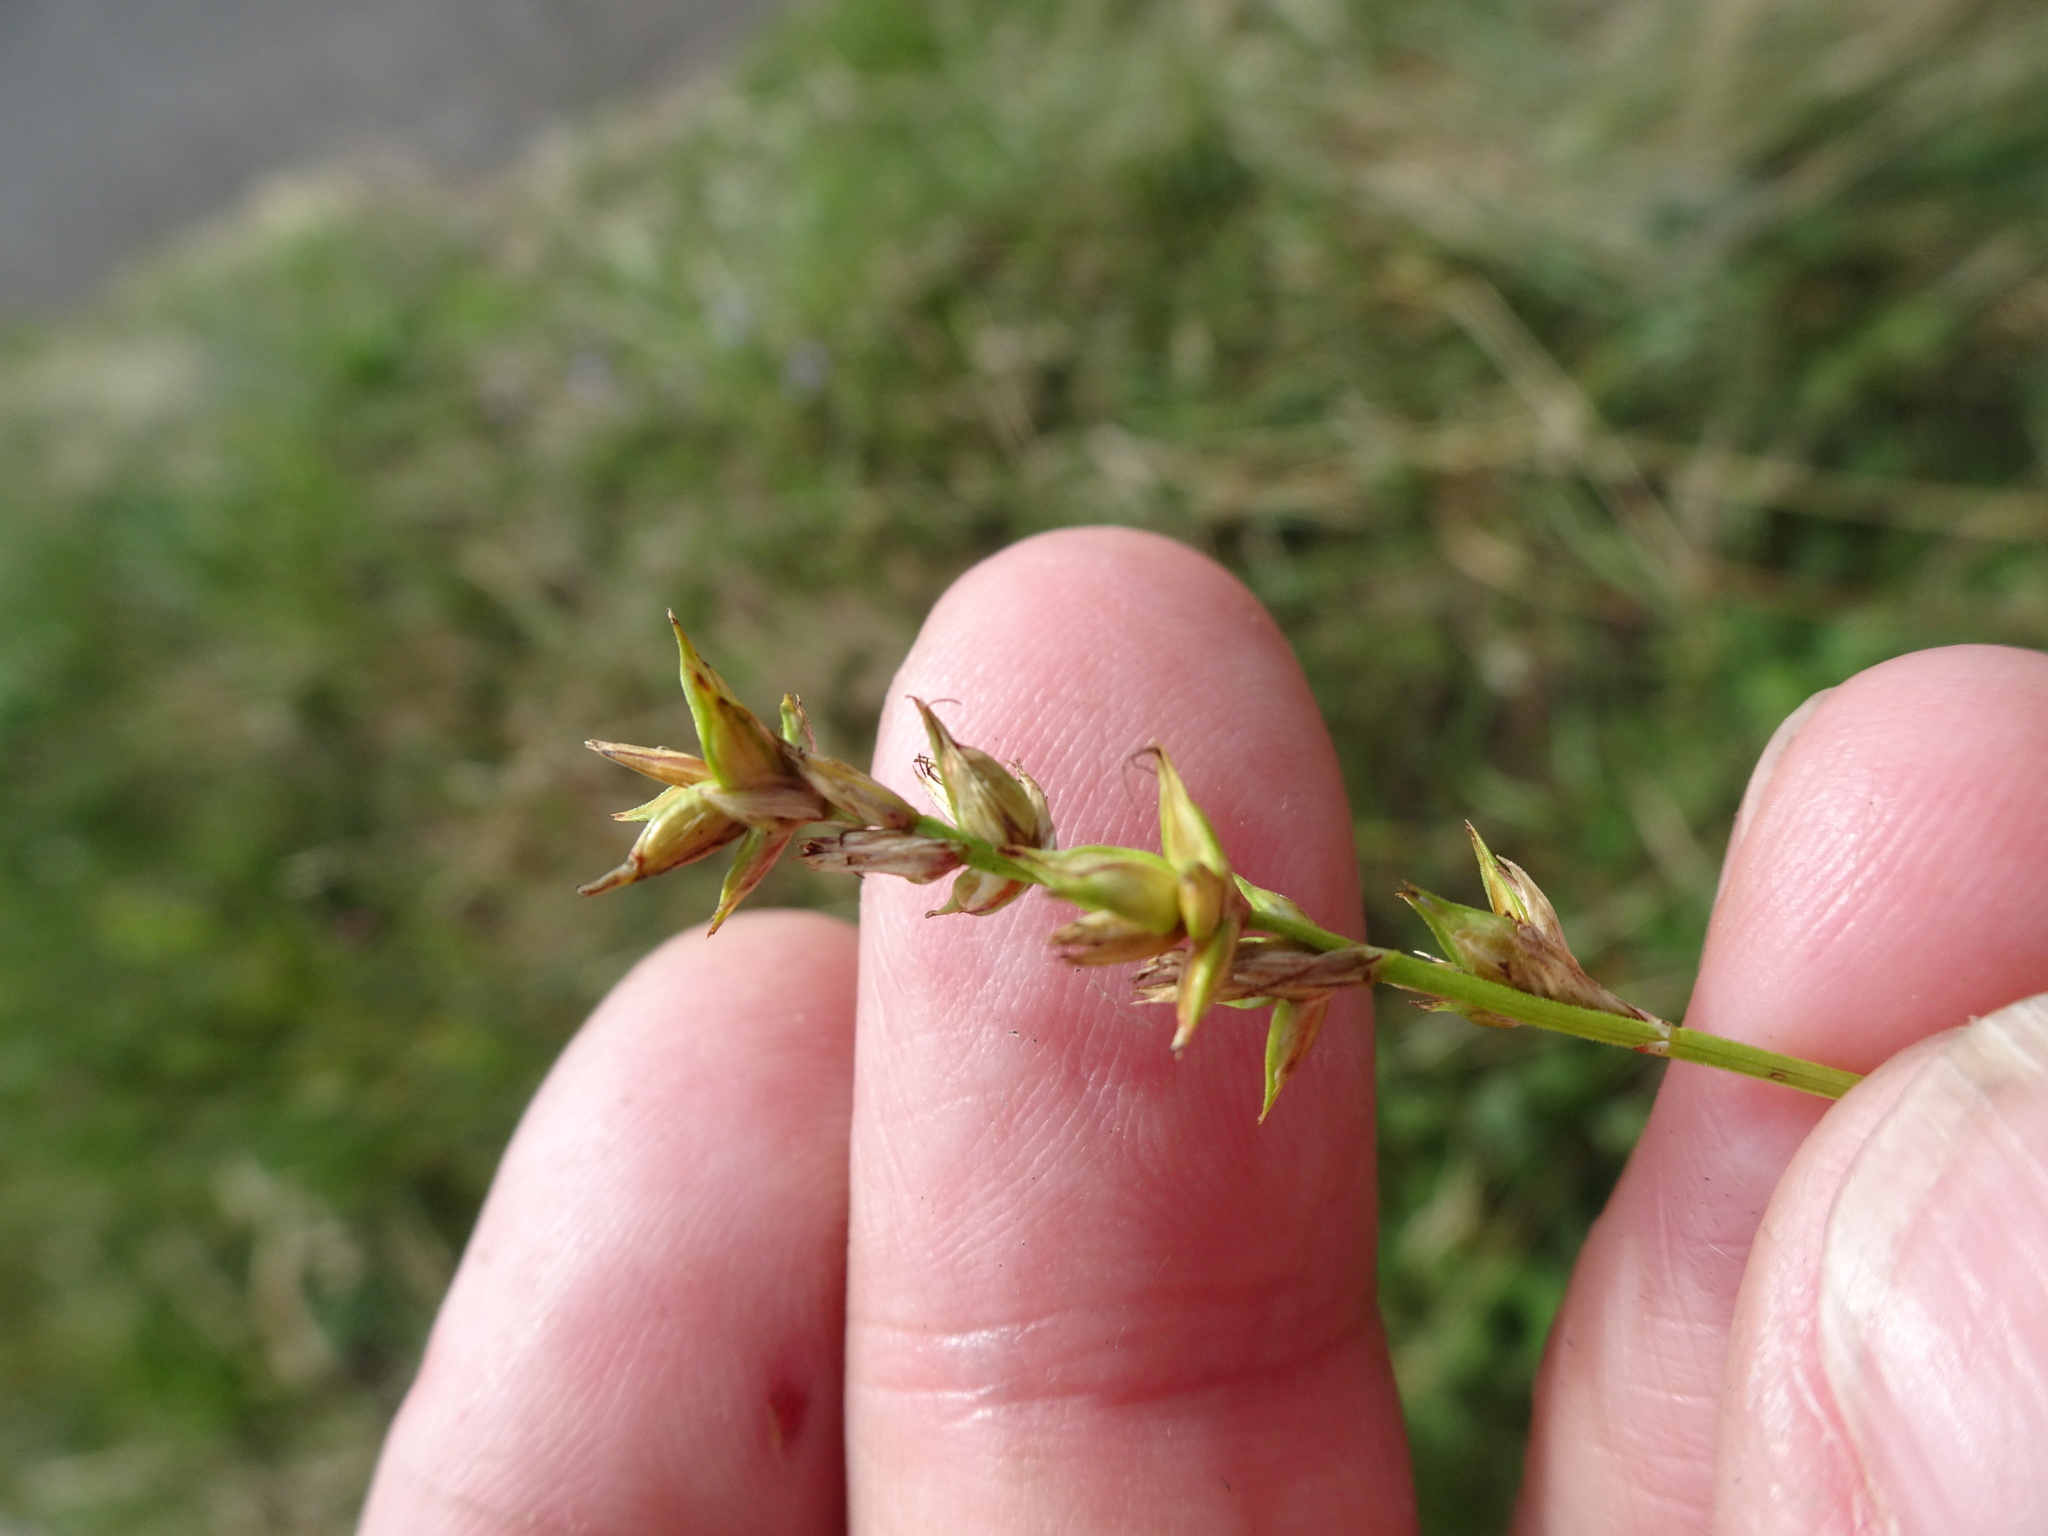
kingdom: Plantae
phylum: Tracheophyta
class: Liliopsida
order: Poales
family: Cyperaceae
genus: Carex
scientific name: Carex spicata
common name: Spiked sedge
